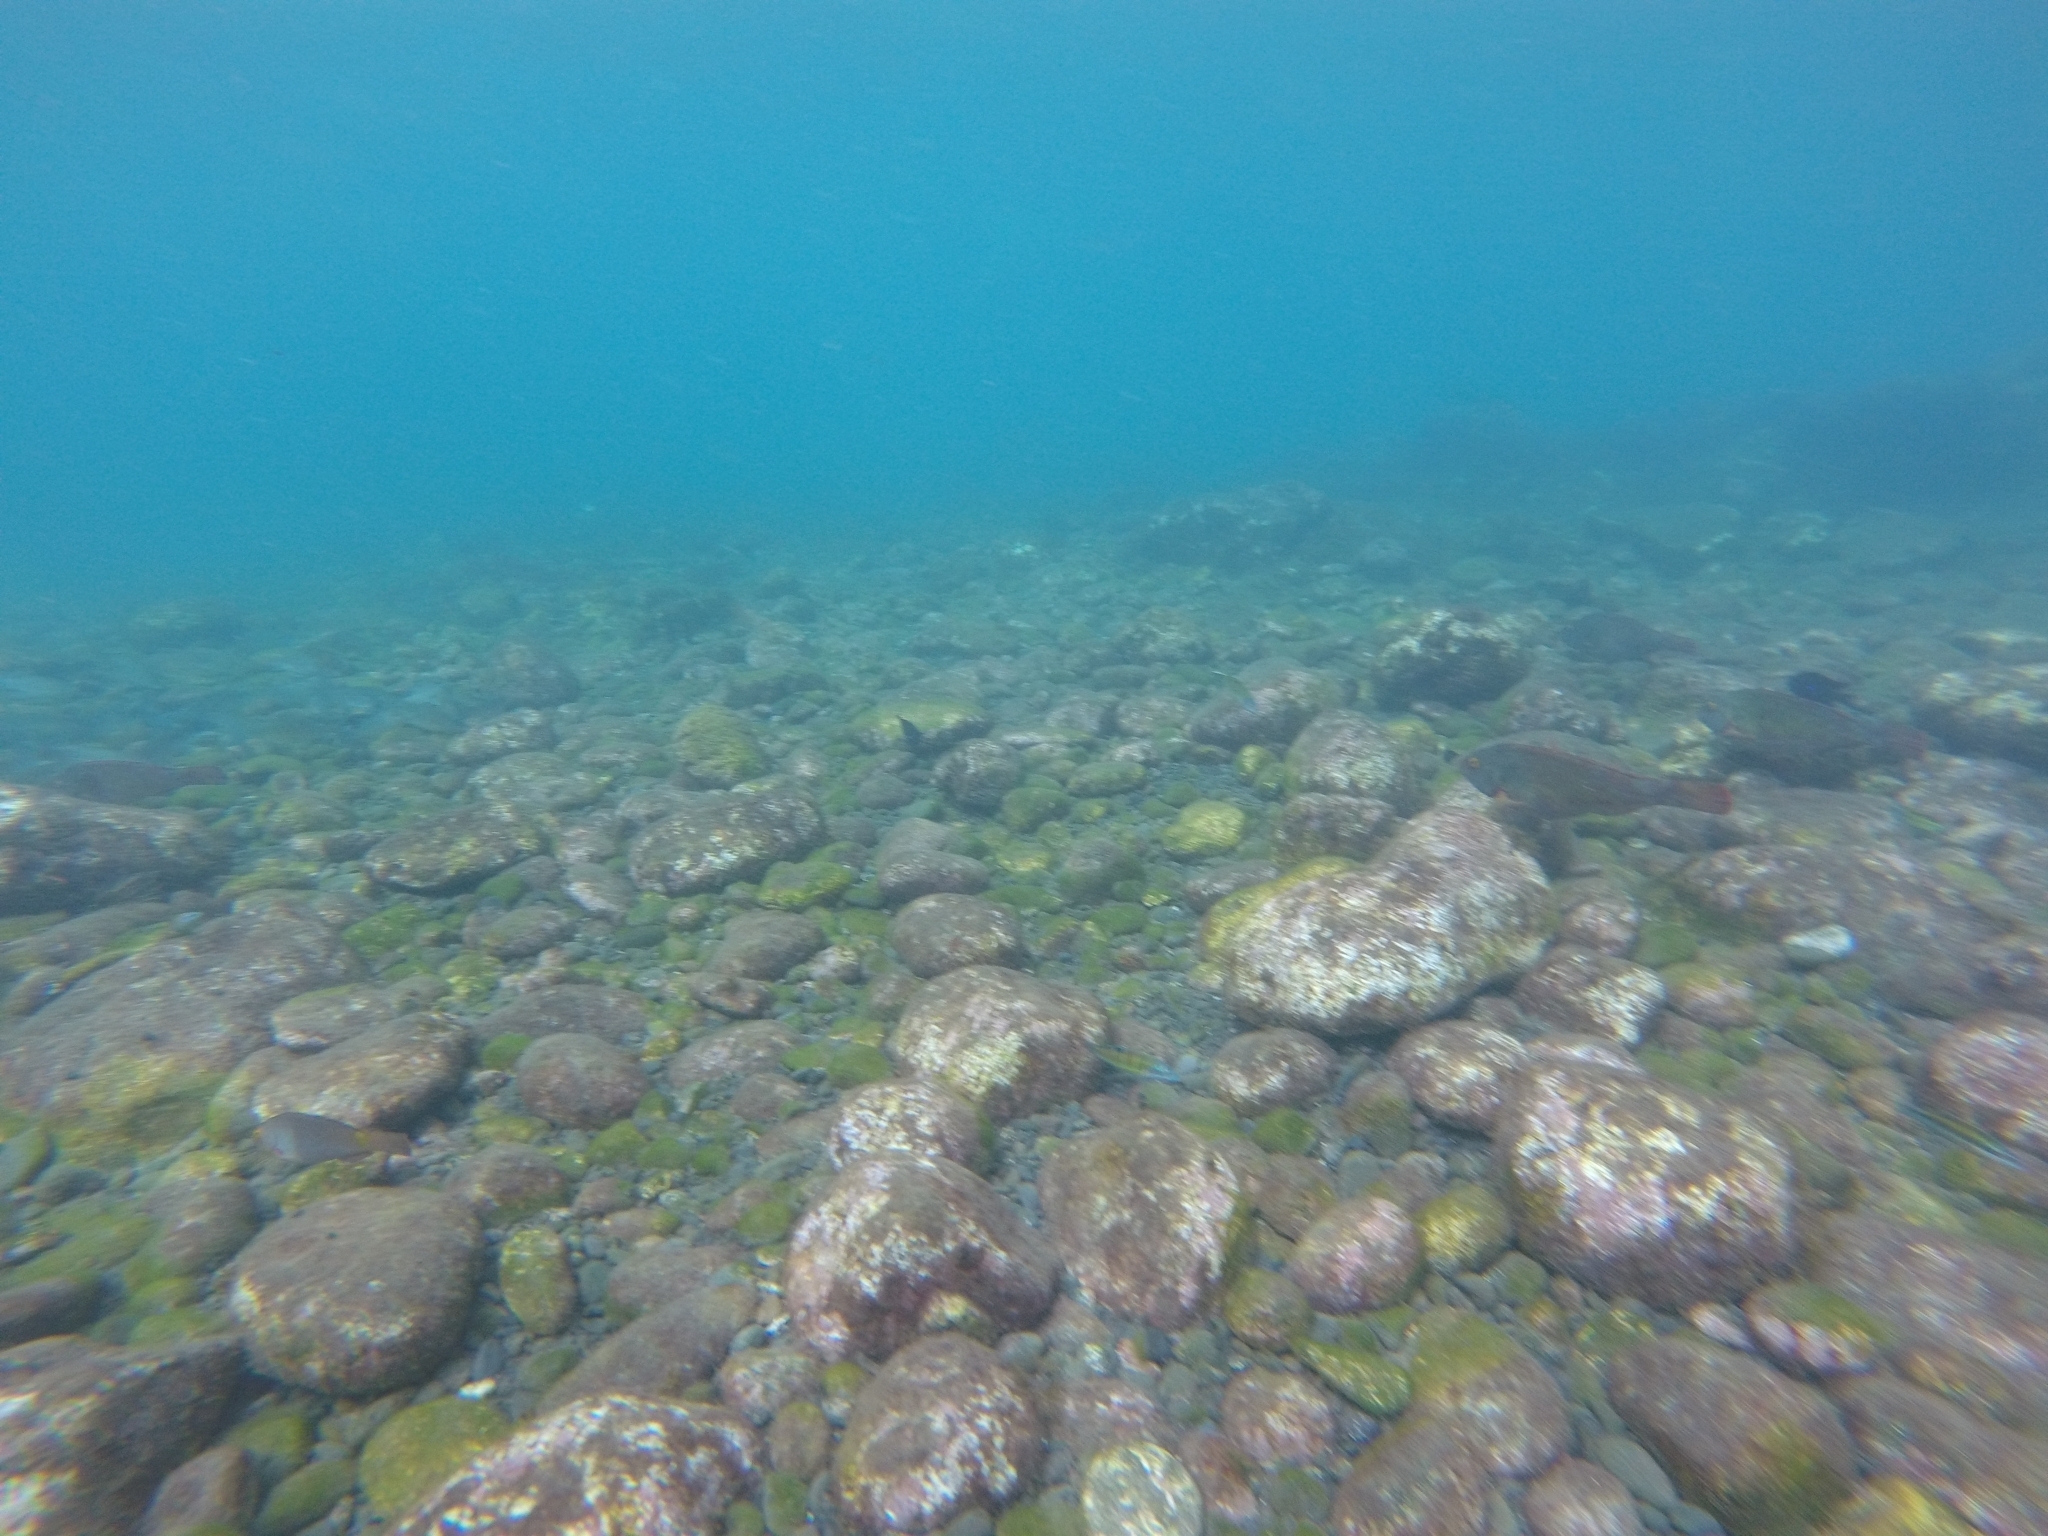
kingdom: Animalia
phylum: Chordata
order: Perciformes
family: Scaridae
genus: Sparisoma
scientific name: Sparisoma cretense
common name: Parrotfish
